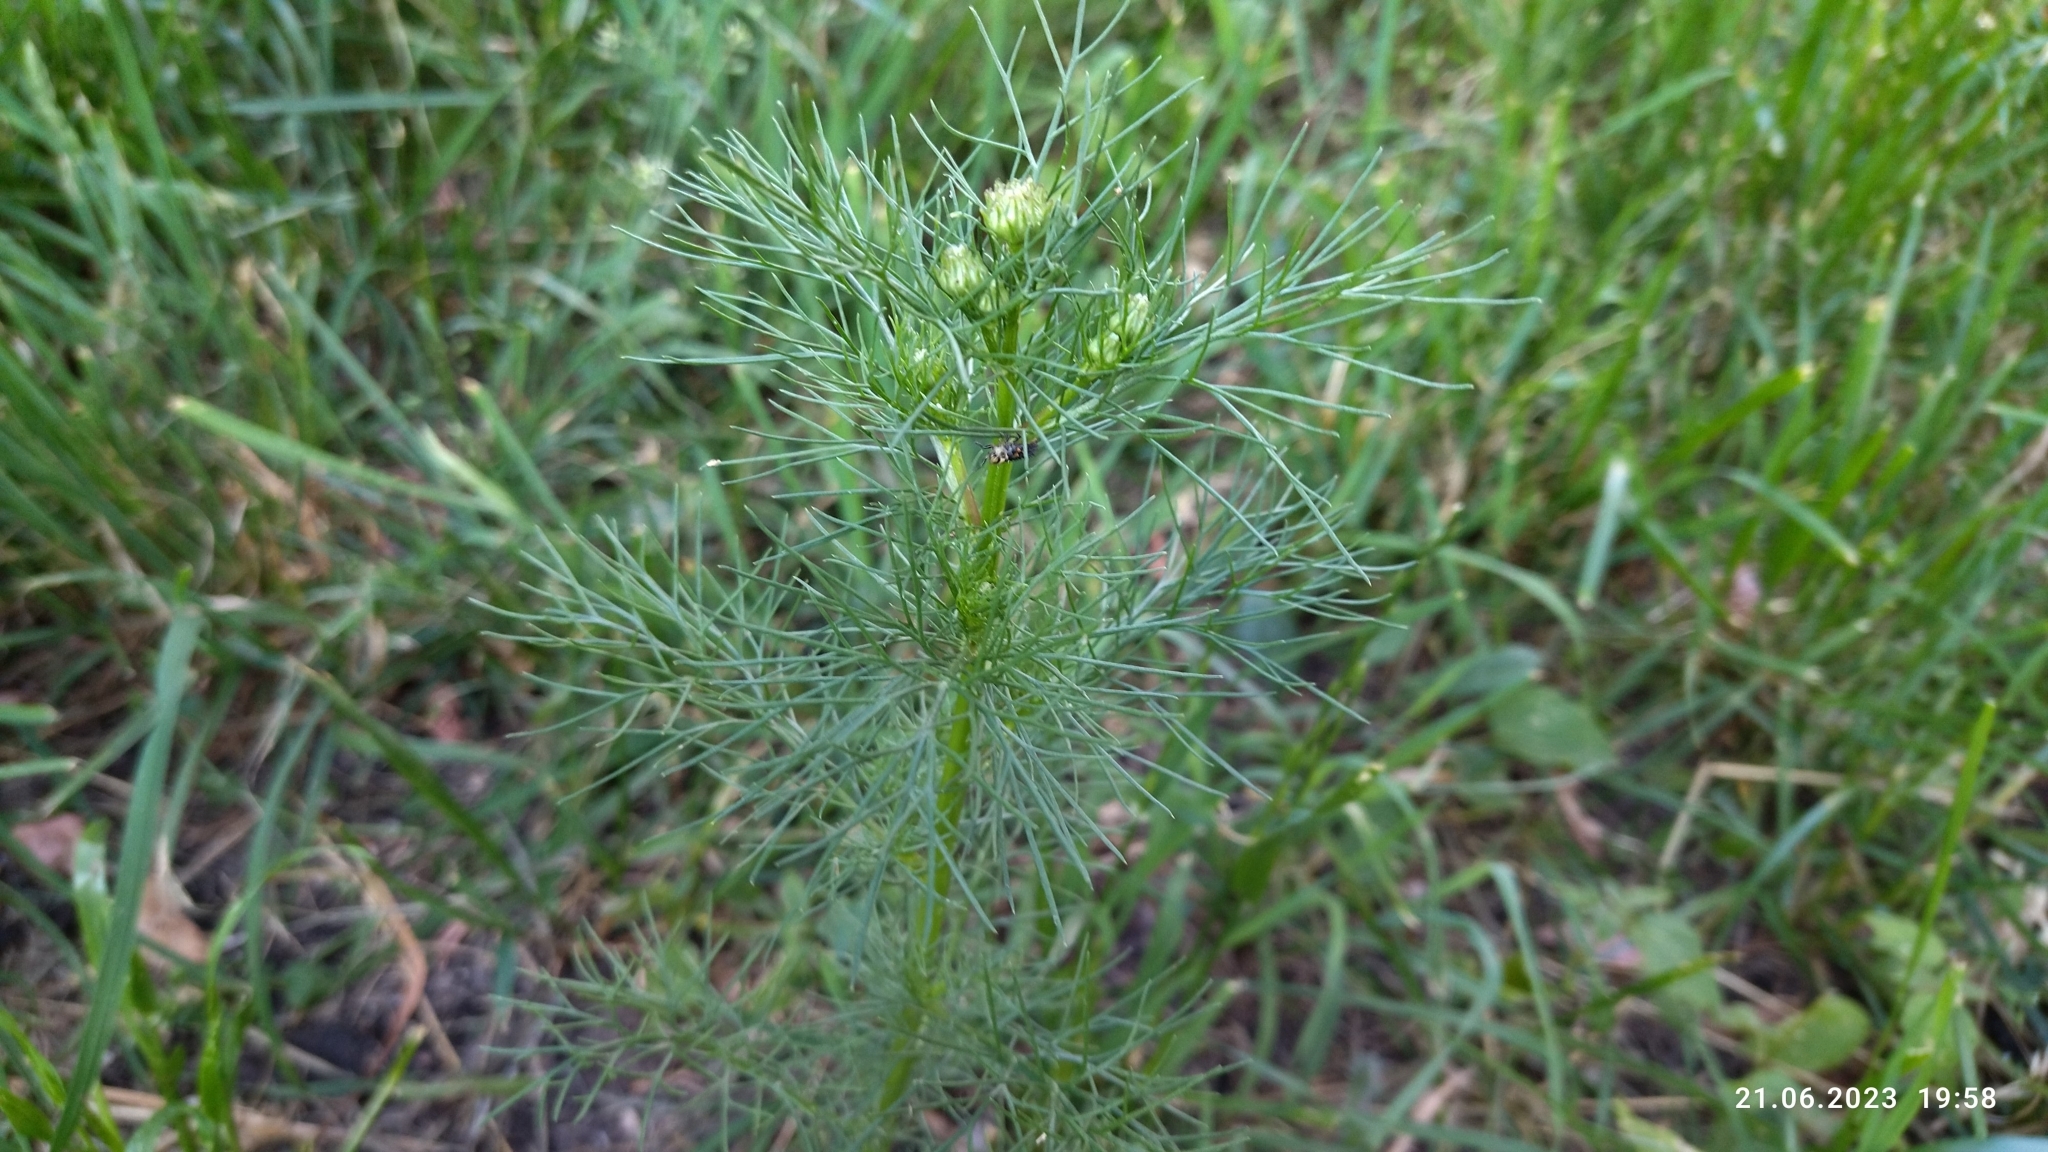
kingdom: Plantae
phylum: Tracheophyta
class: Magnoliopsida
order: Asterales
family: Asteraceae
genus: Tripleurospermum
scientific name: Tripleurospermum inodorum
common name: Scentless mayweed
